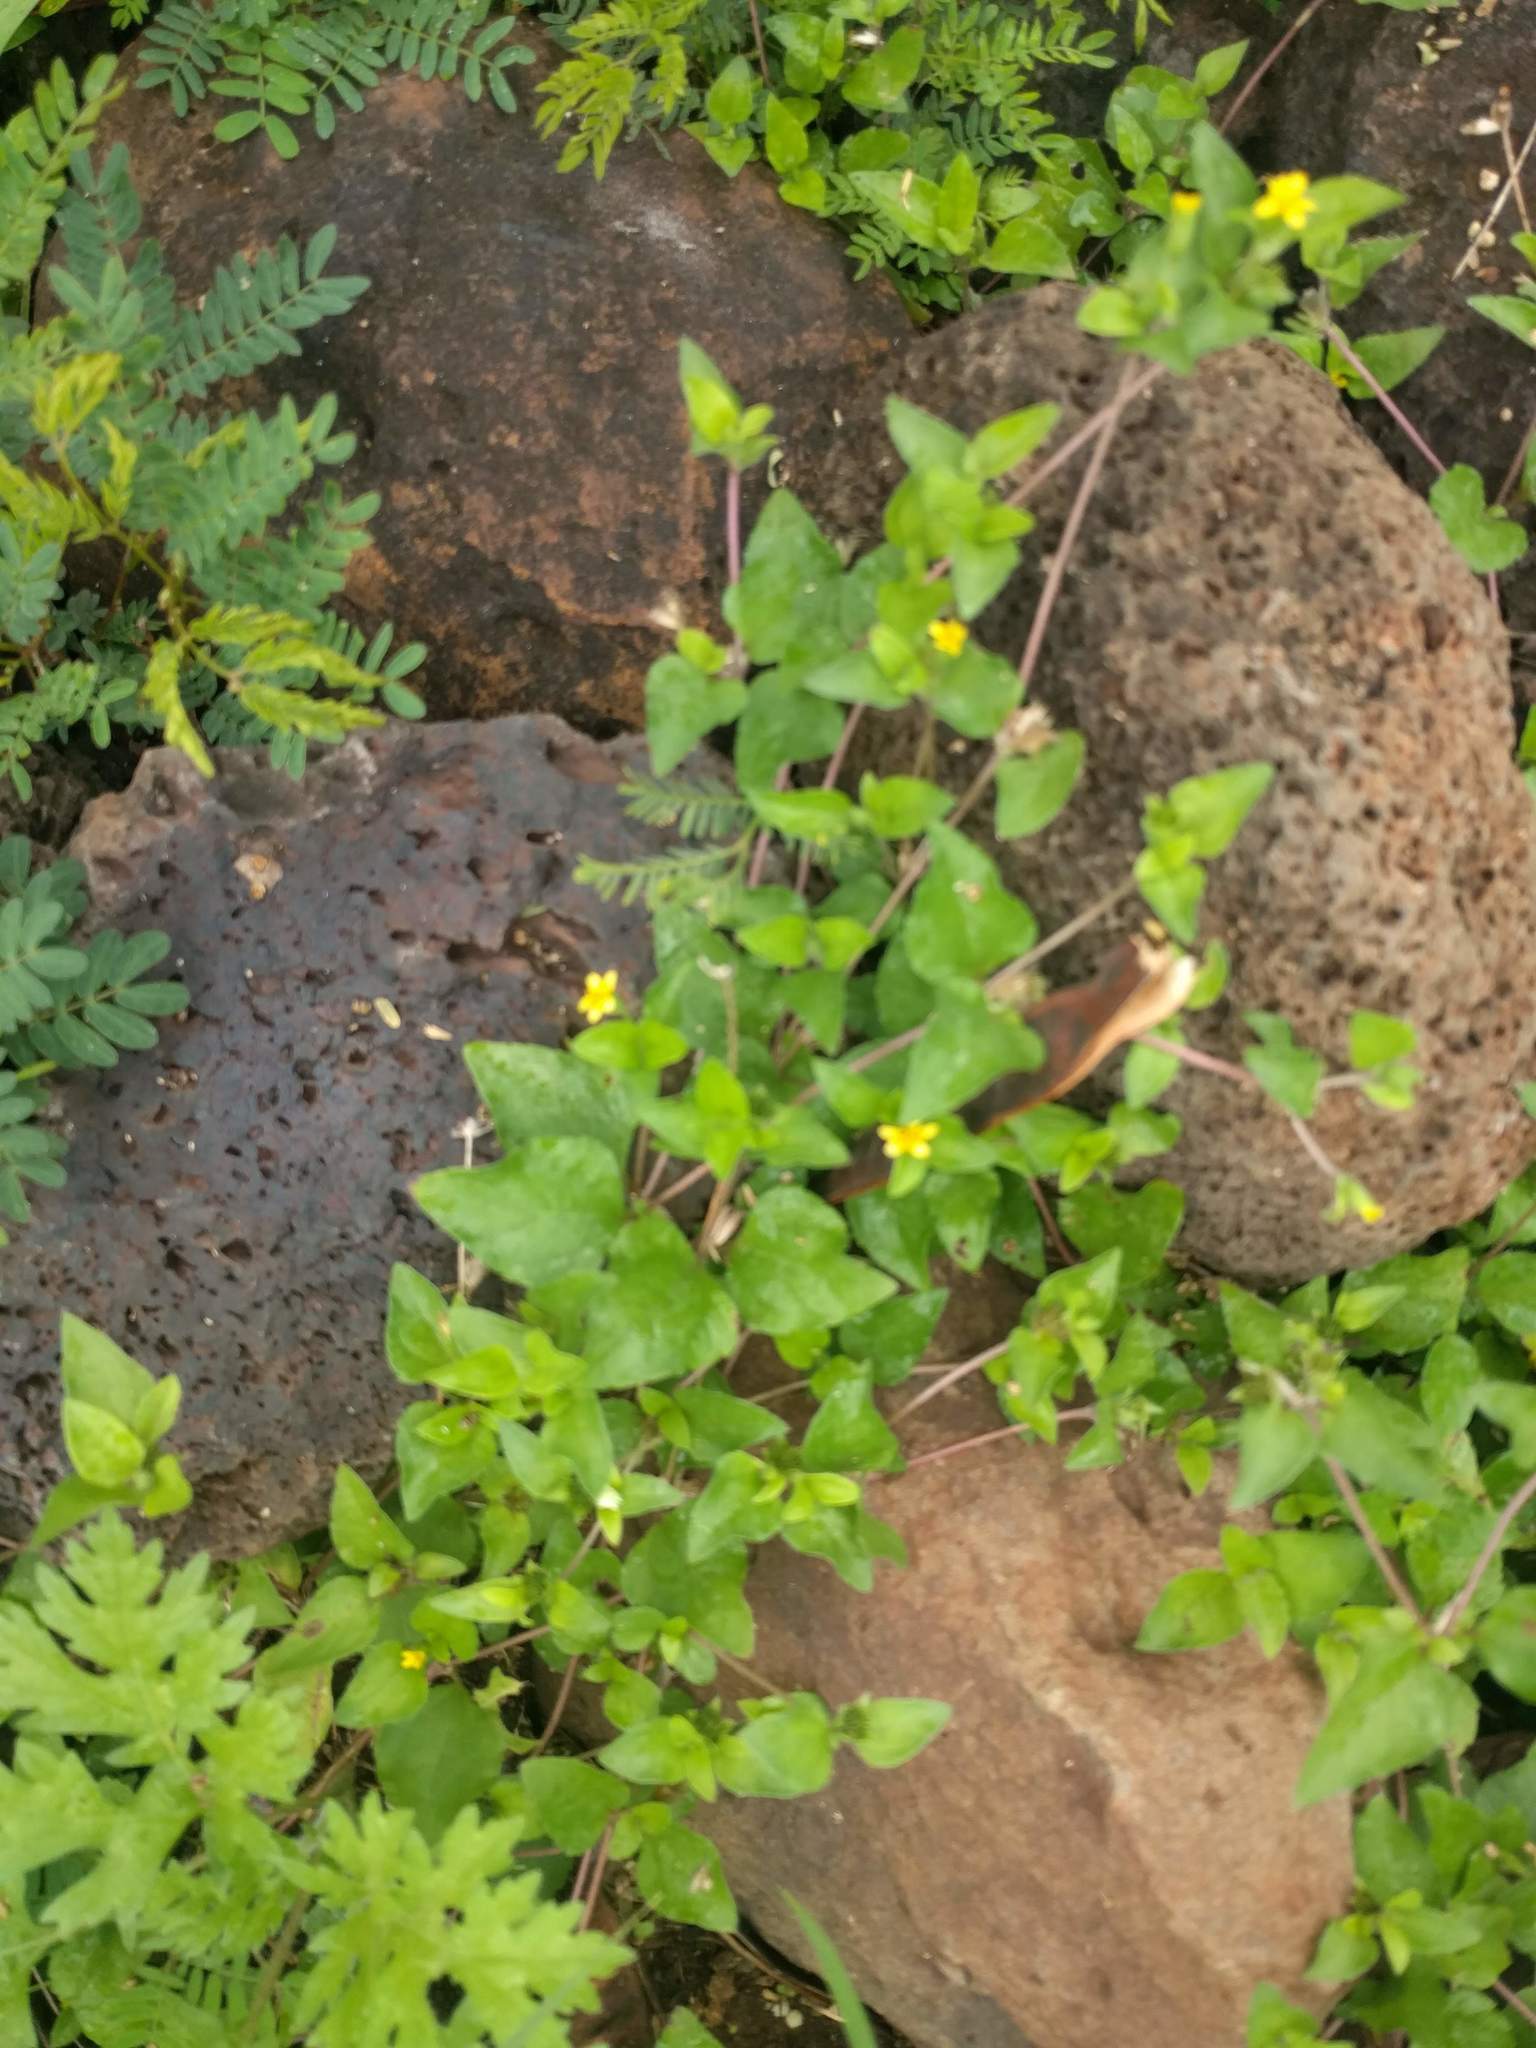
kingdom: Plantae
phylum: Tracheophyta
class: Magnoliopsida
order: Asterales
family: Asteraceae
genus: Calyptocarpus
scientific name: Calyptocarpus vialis
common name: Straggler daisy
